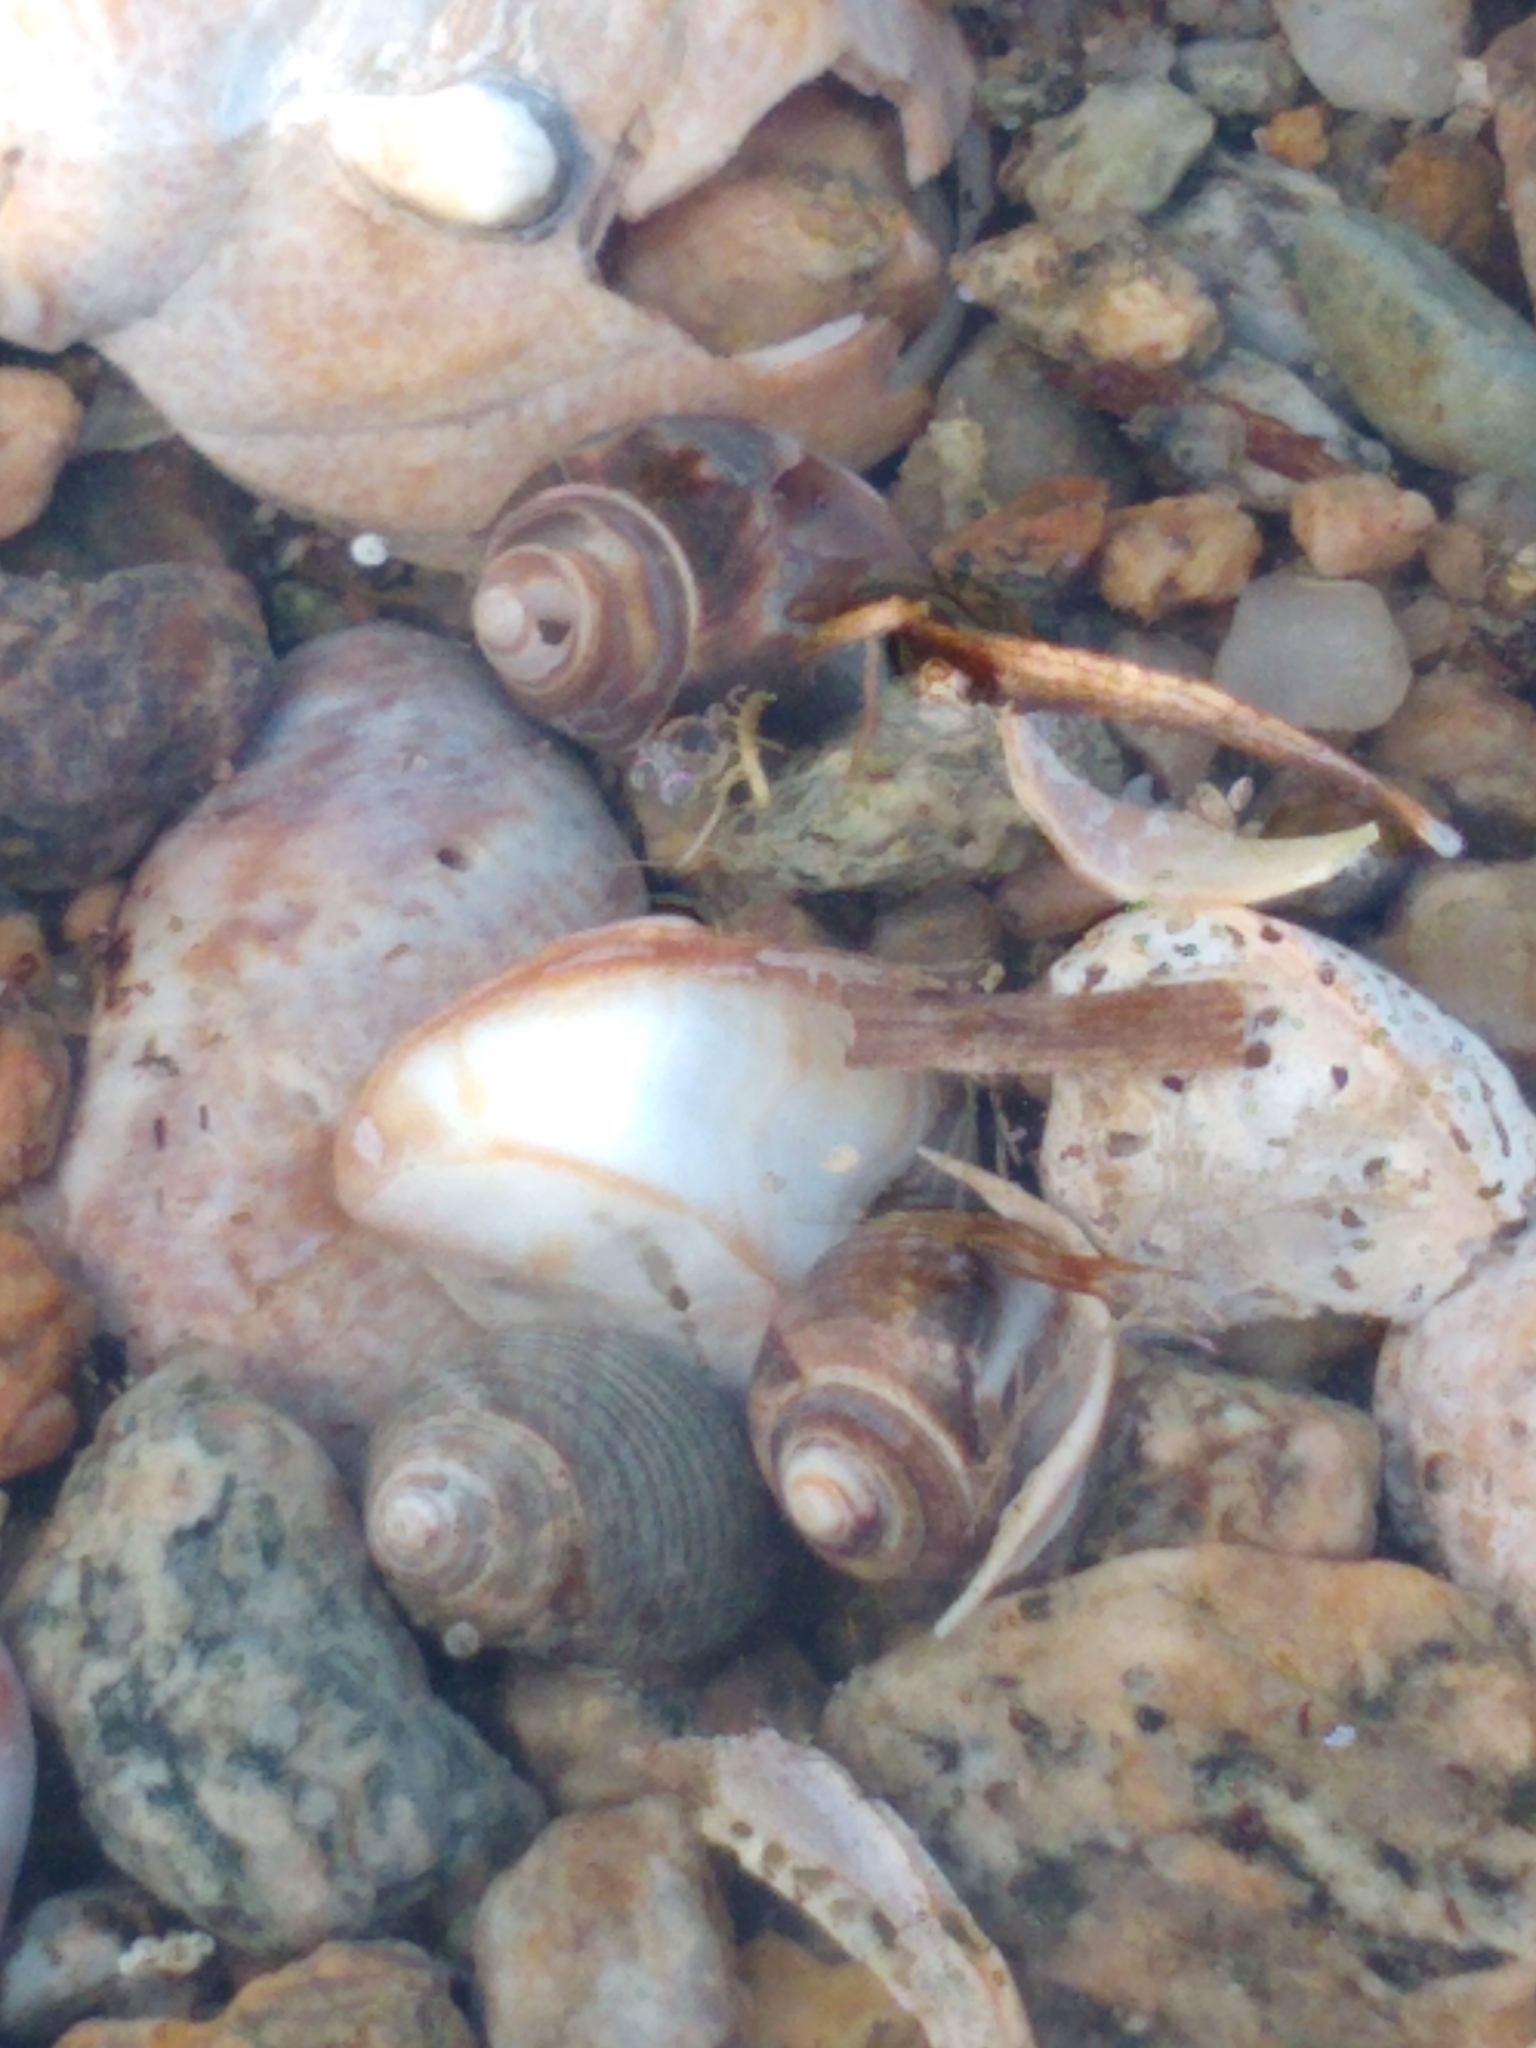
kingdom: Animalia
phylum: Mollusca
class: Gastropoda
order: Littorinimorpha
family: Littorinidae
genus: Littorina
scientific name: Littorina littorea
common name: Common periwinkle
